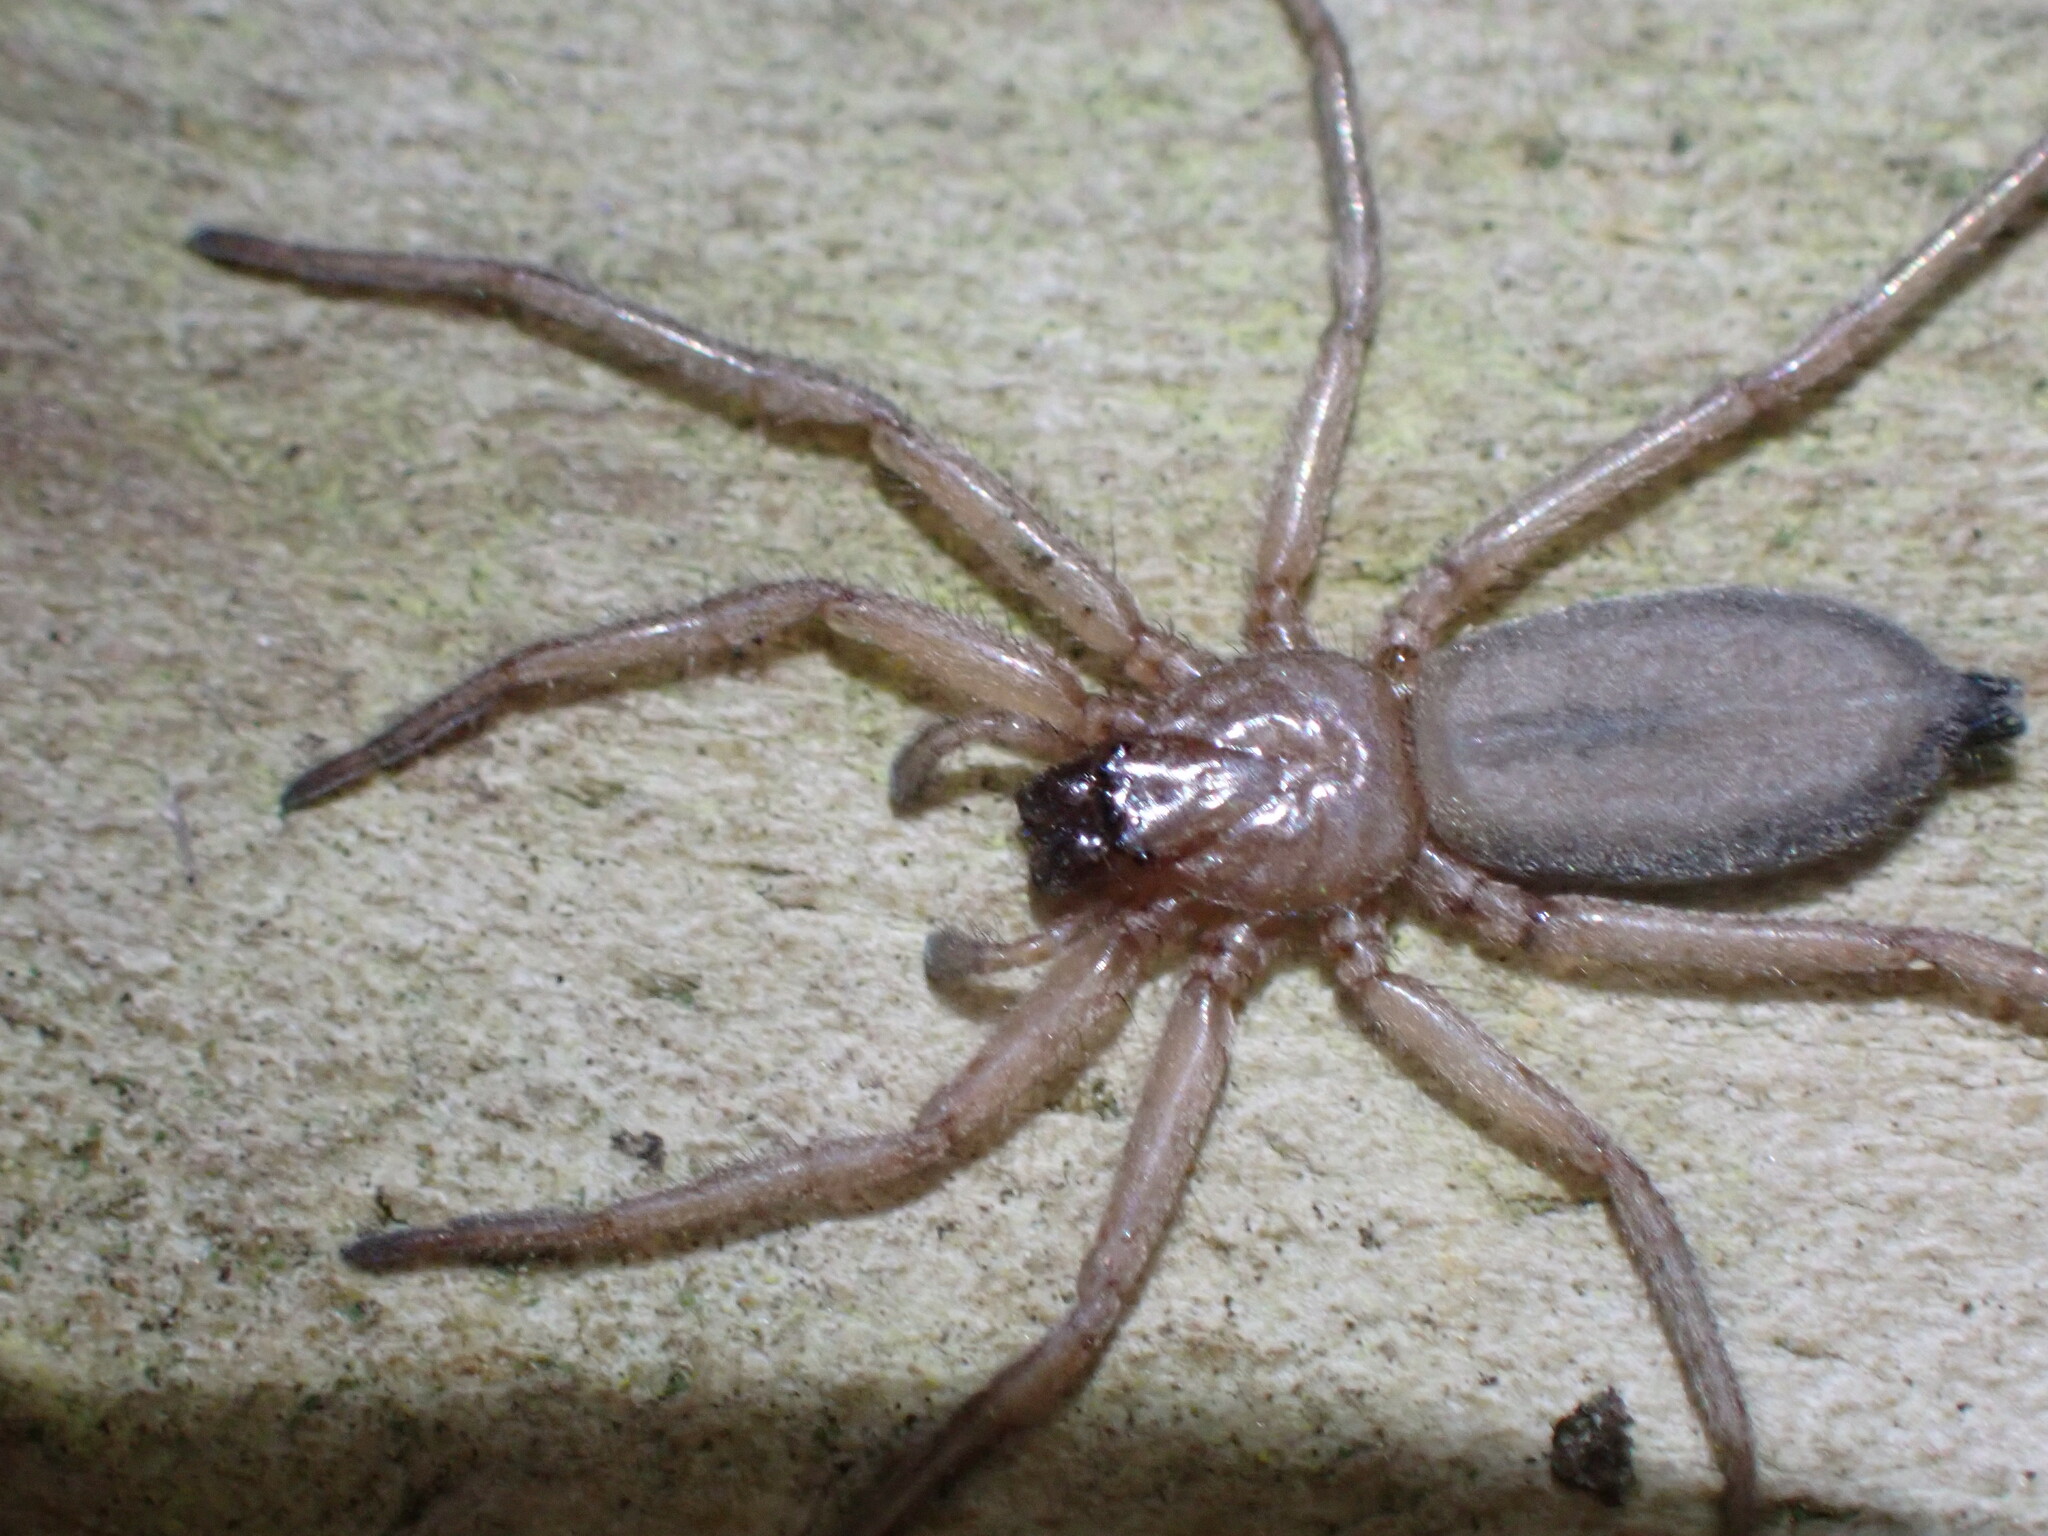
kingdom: Animalia
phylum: Arthropoda
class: Arachnida
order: Araneae
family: Trochanteriidae
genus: Hemicloea
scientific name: Hemicloea rogenhoferi
